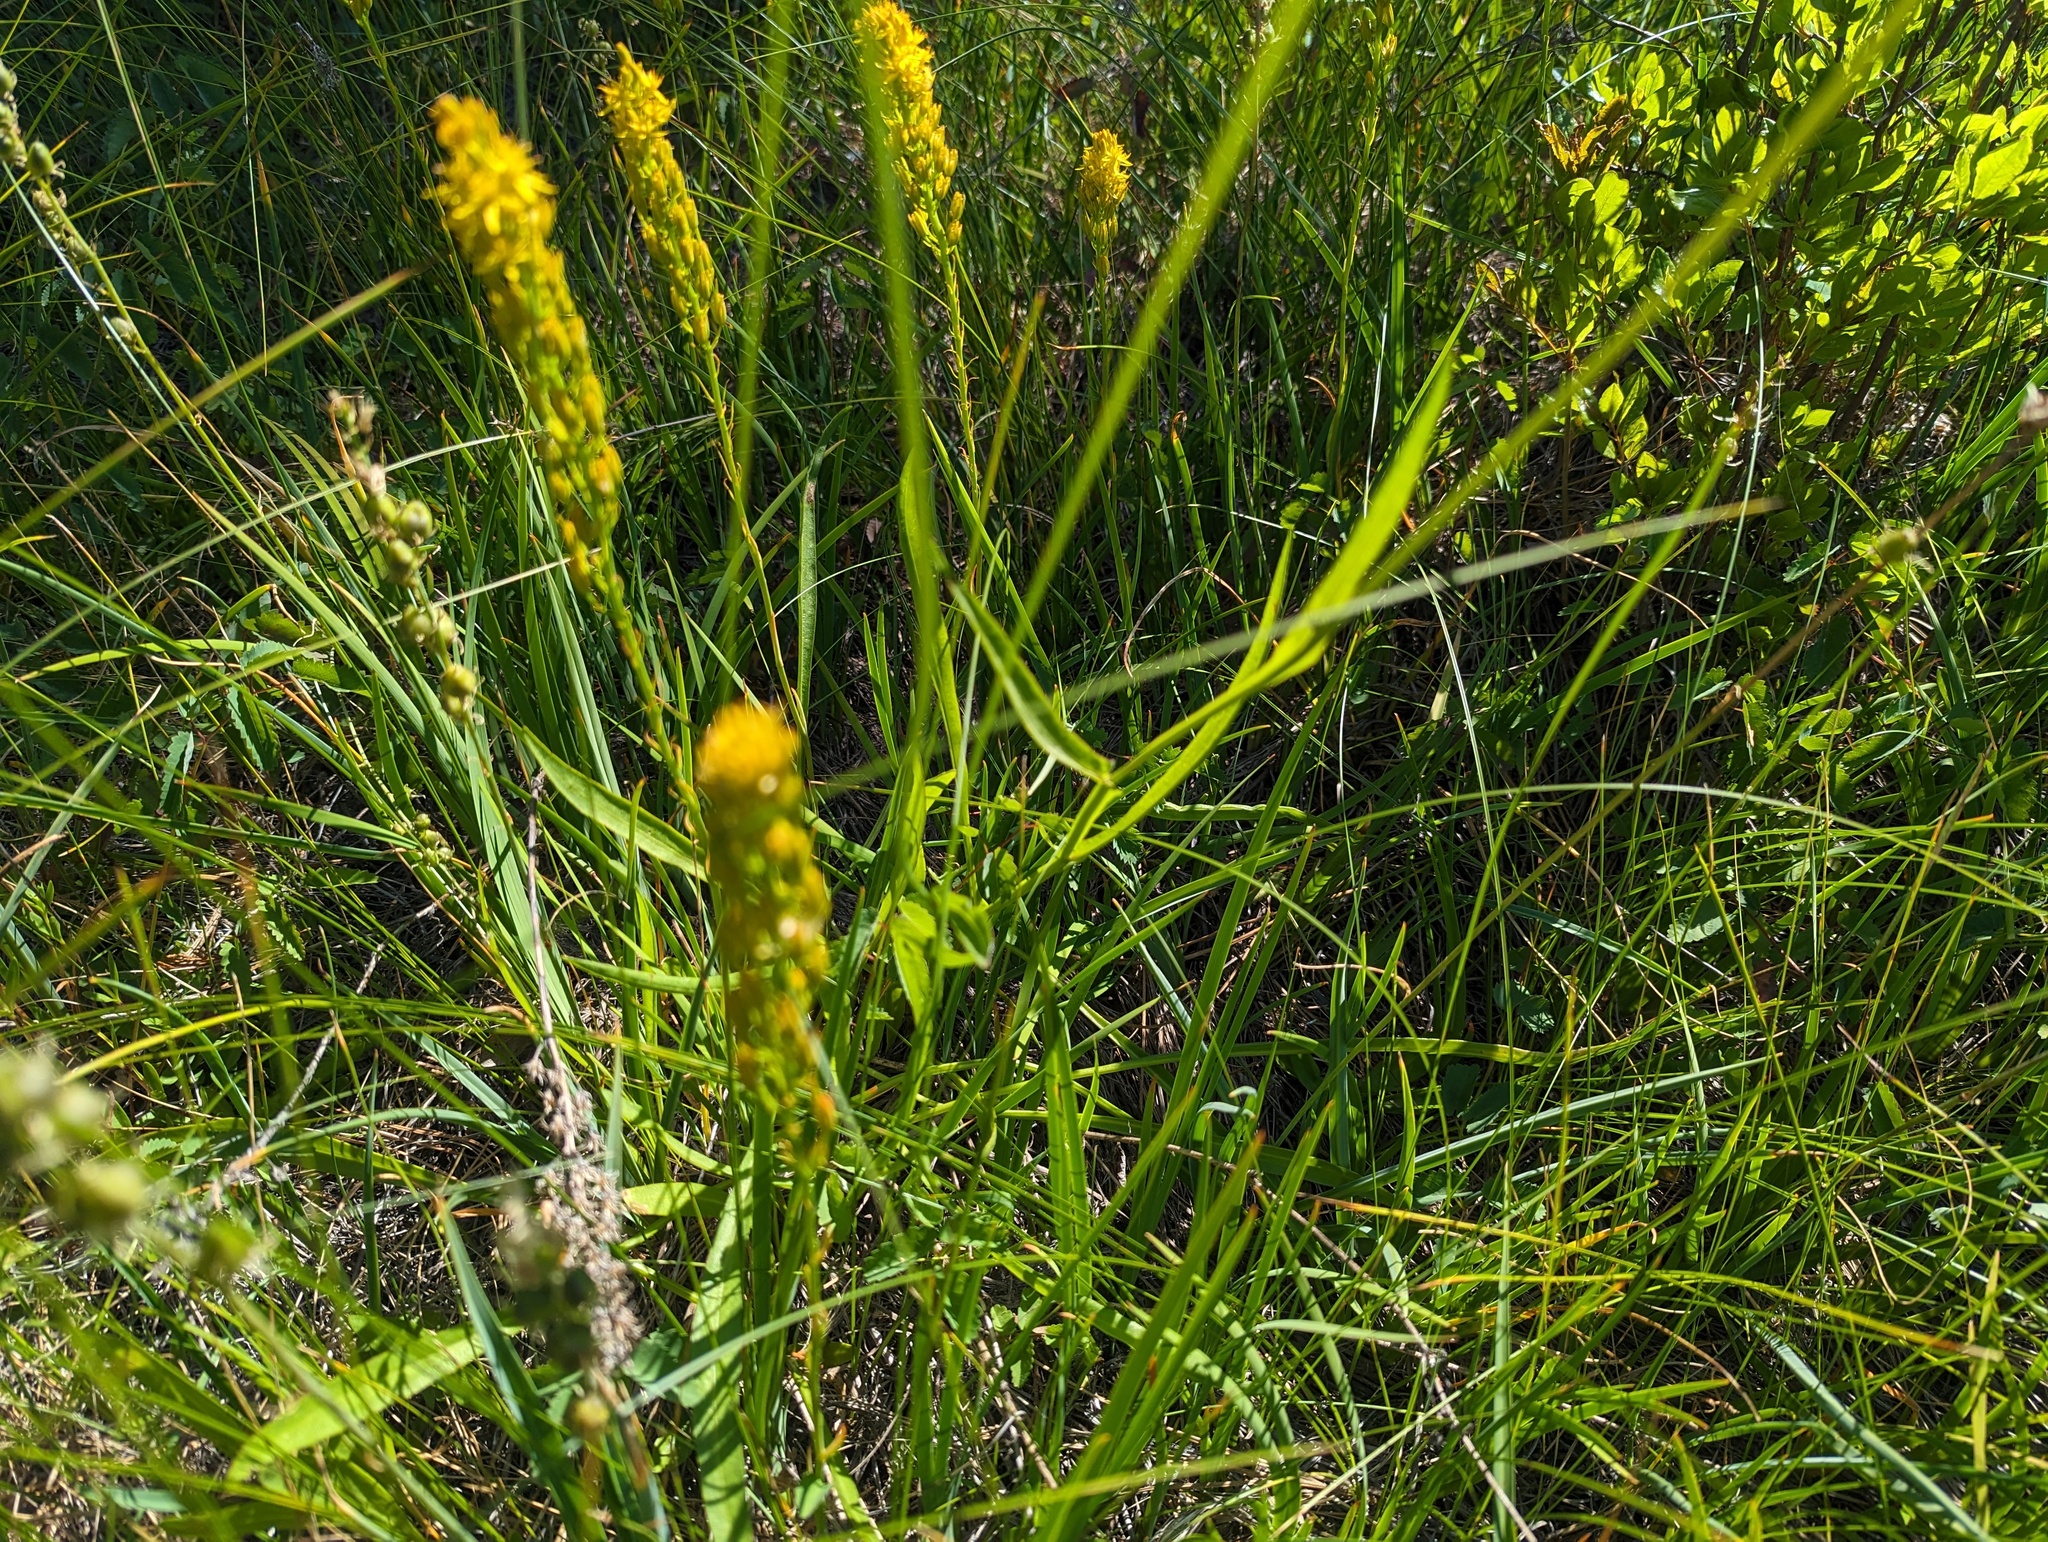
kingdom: Plantae
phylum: Tracheophyta
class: Liliopsida
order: Dioscoreales
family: Nartheciaceae
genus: Narthecium
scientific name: Narthecium californicum
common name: California bog-asphodel
